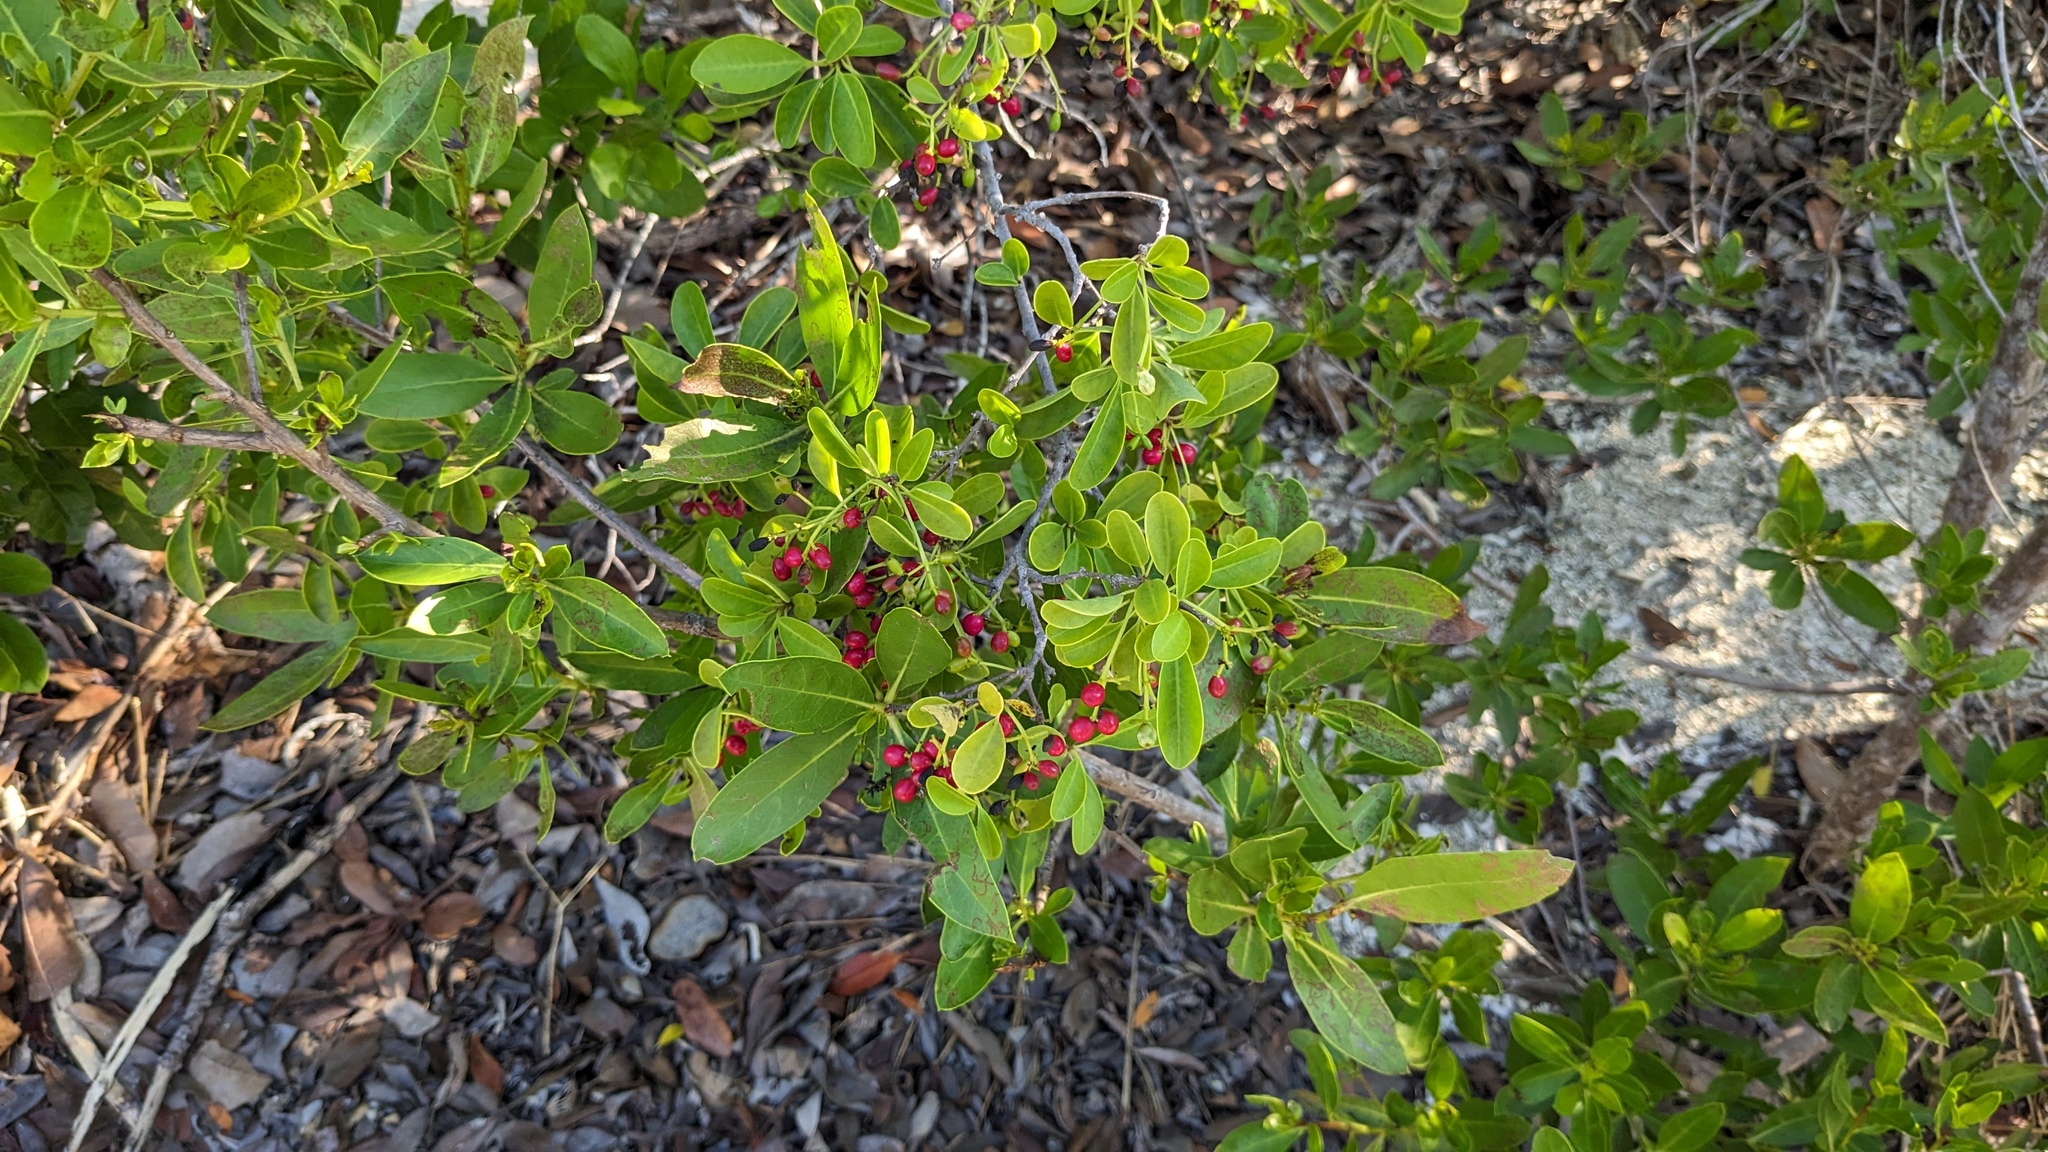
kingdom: Plantae
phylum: Tracheophyta
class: Magnoliopsida
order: Caryophyllales
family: Nyctaginaceae
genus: Guapira
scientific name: Guapira discolor
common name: Beeftree
